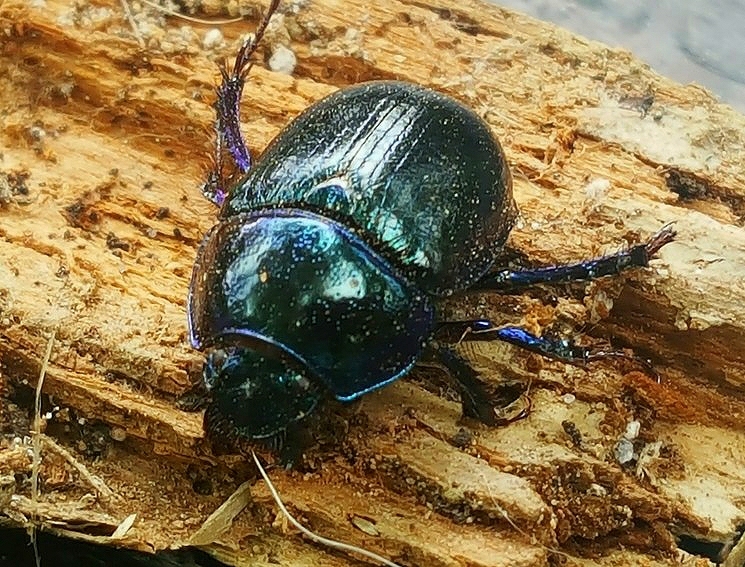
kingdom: Animalia
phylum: Arthropoda
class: Insecta
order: Coleoptera
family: Geotrupidae
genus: Anoplotrupes
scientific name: Anoplotrupes stercorosus
